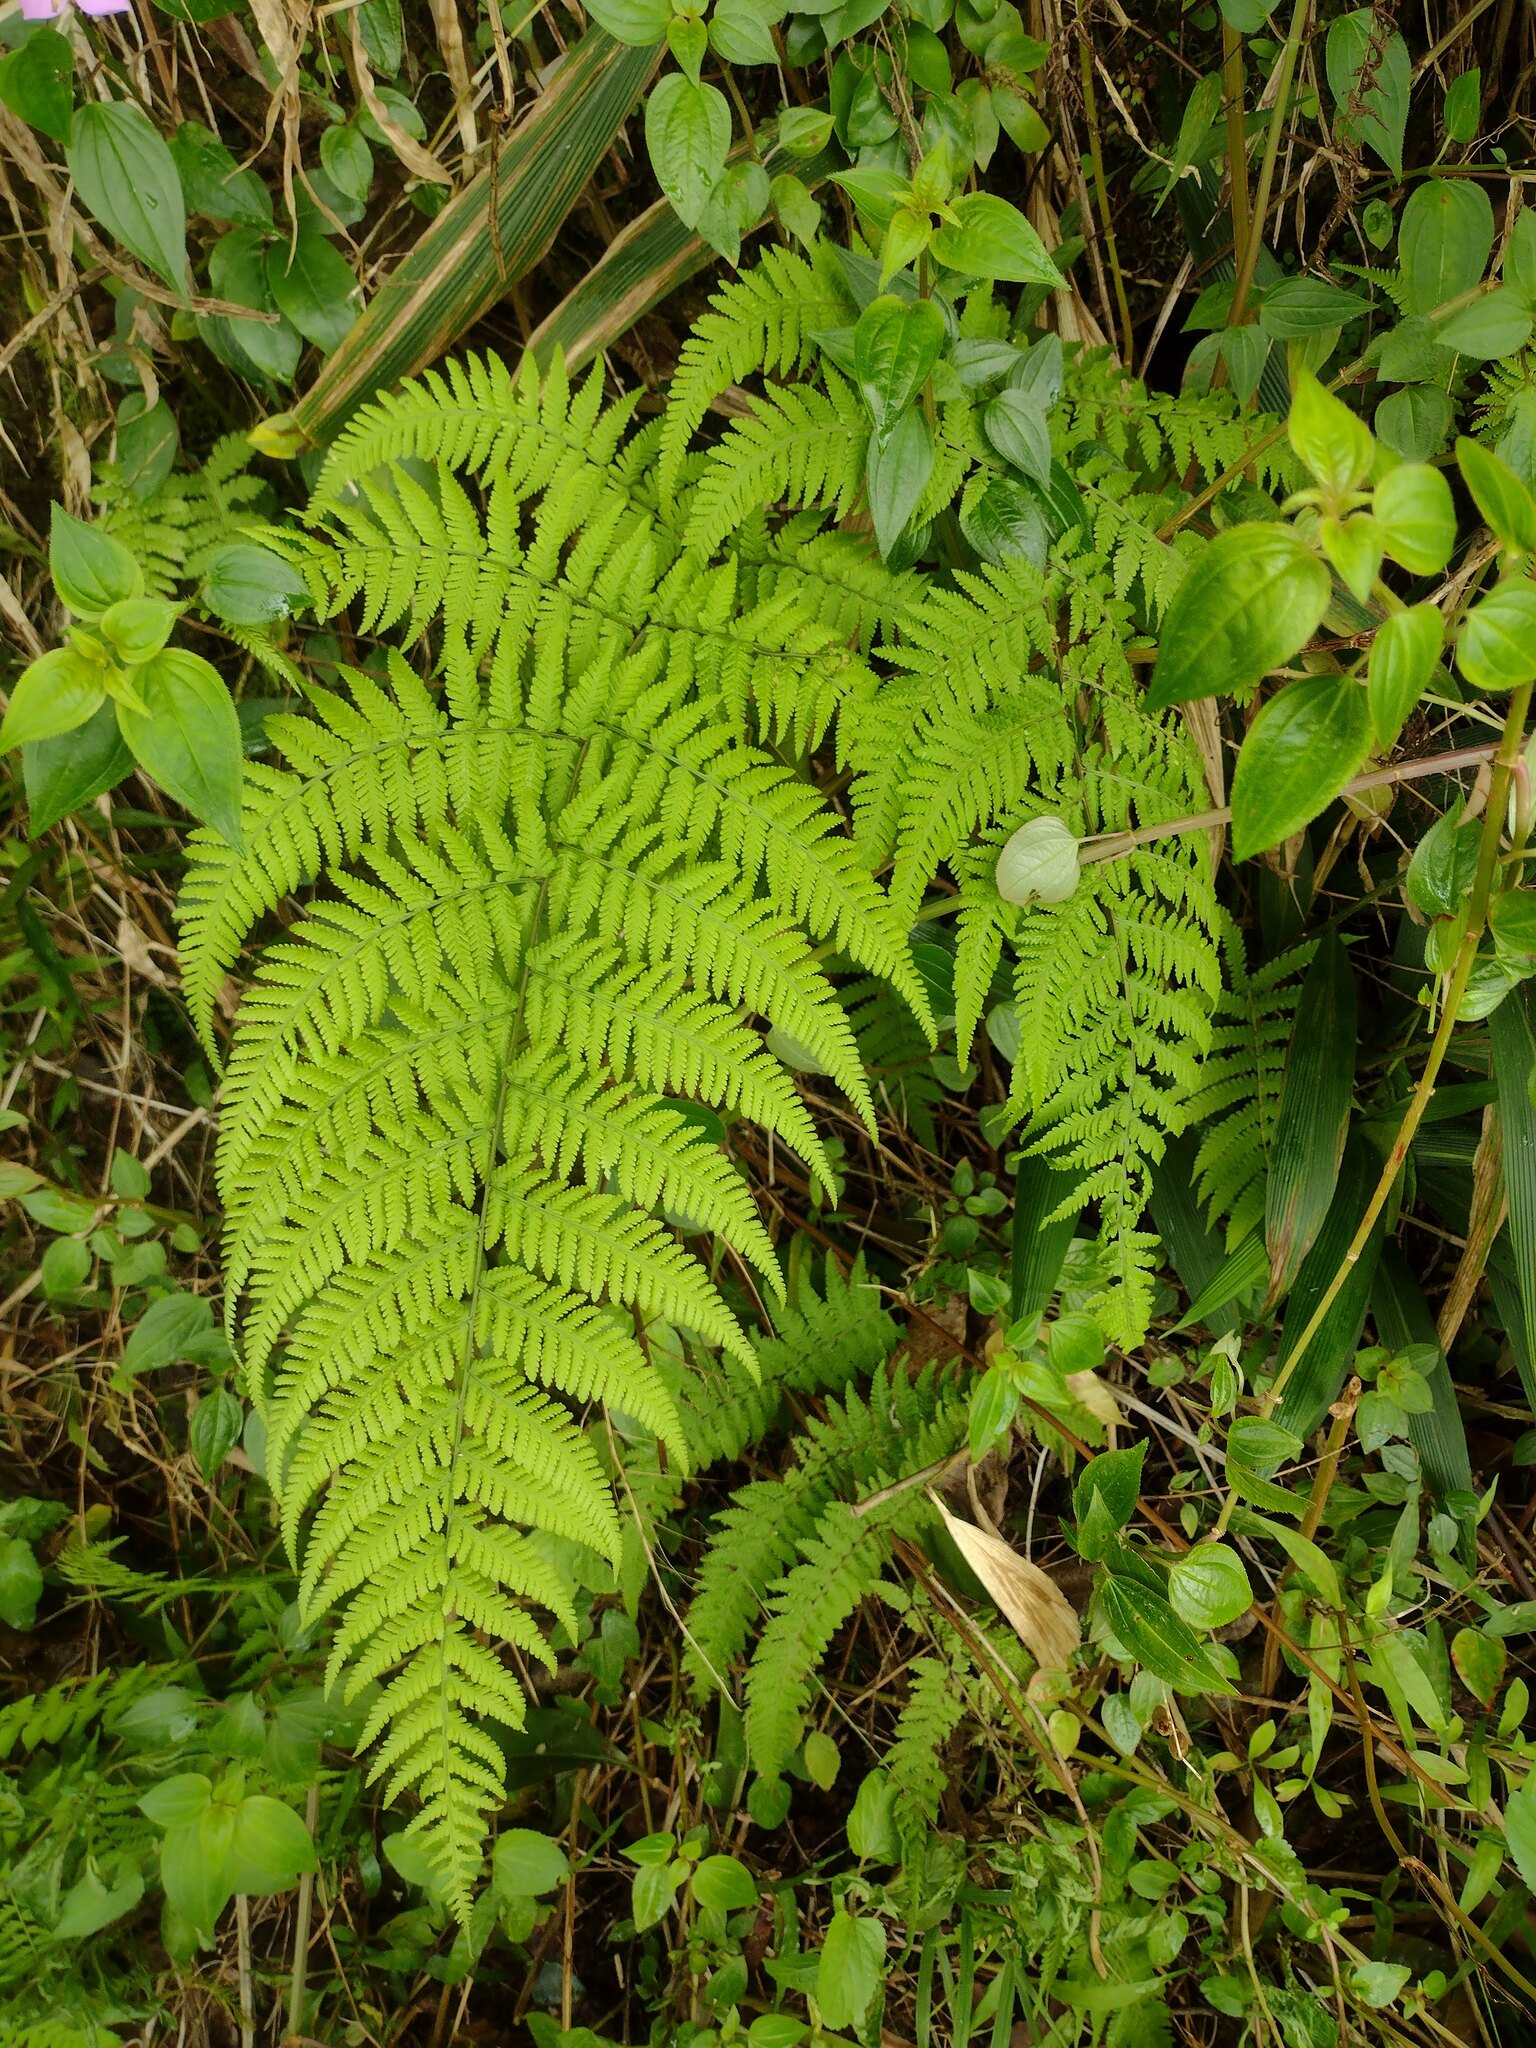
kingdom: Plantae
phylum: Tracheophyta
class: Polypodiopsida
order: Polypodiales
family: Thelypteridaceae
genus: Macrothelypteris
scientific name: Macrothelypteris torresiana
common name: Swordfern
